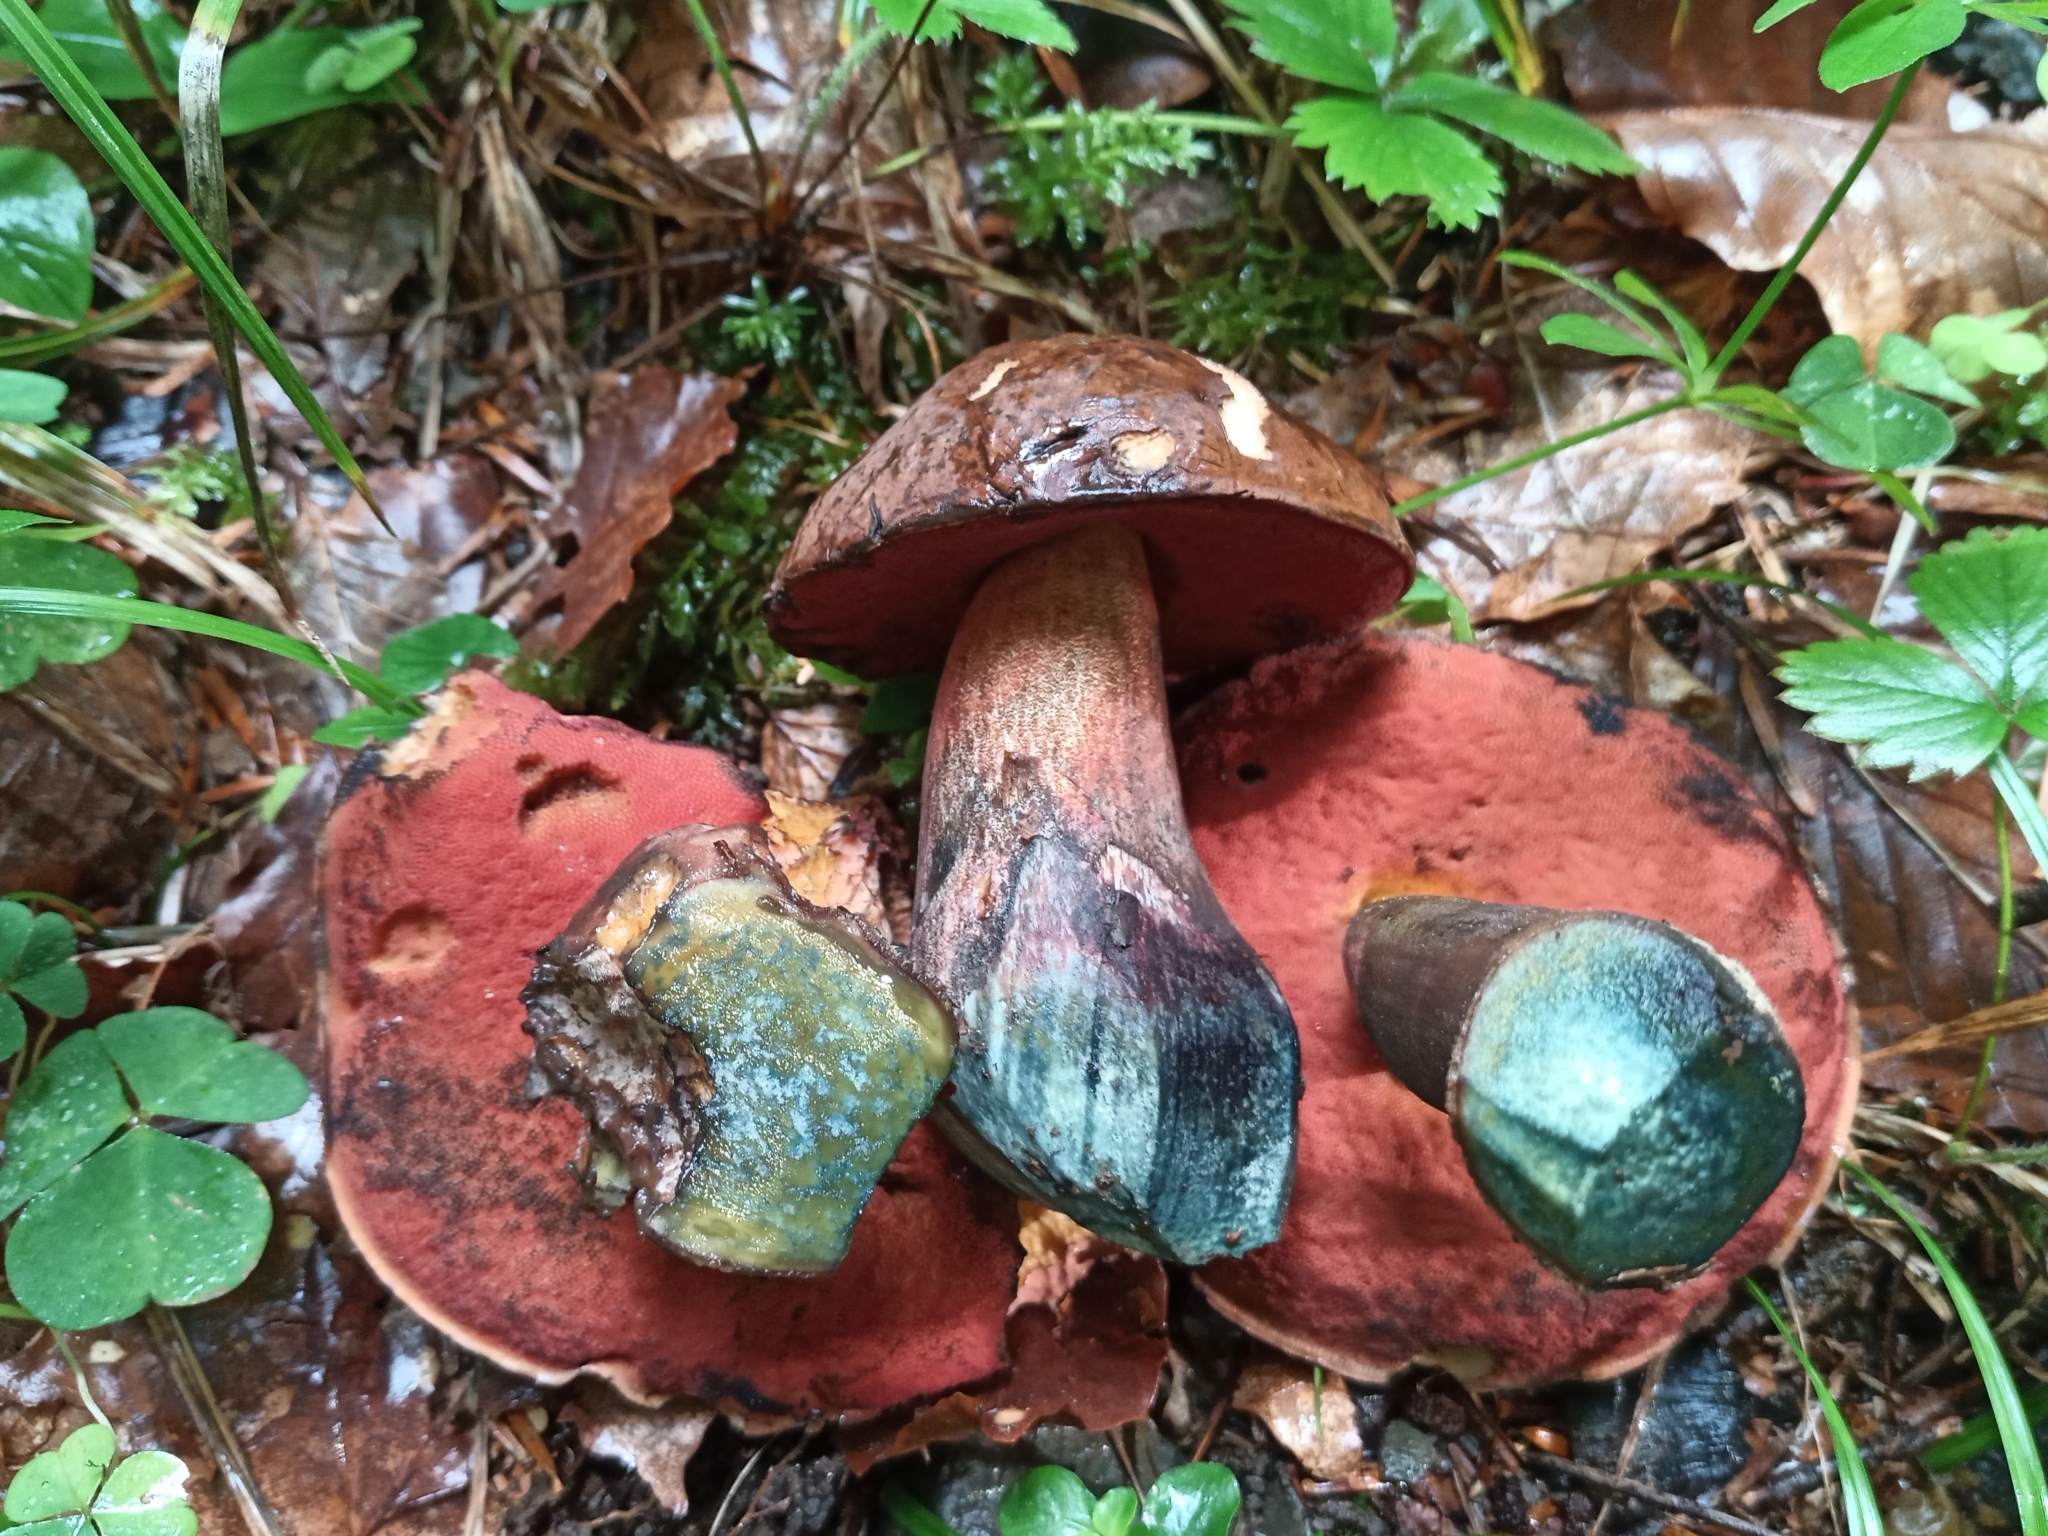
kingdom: Fungi
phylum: Basidiomycota
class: Agaricomycetes
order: Boletales
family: Boletaceae
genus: Neoboletus
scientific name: Neoboletus erythropus
